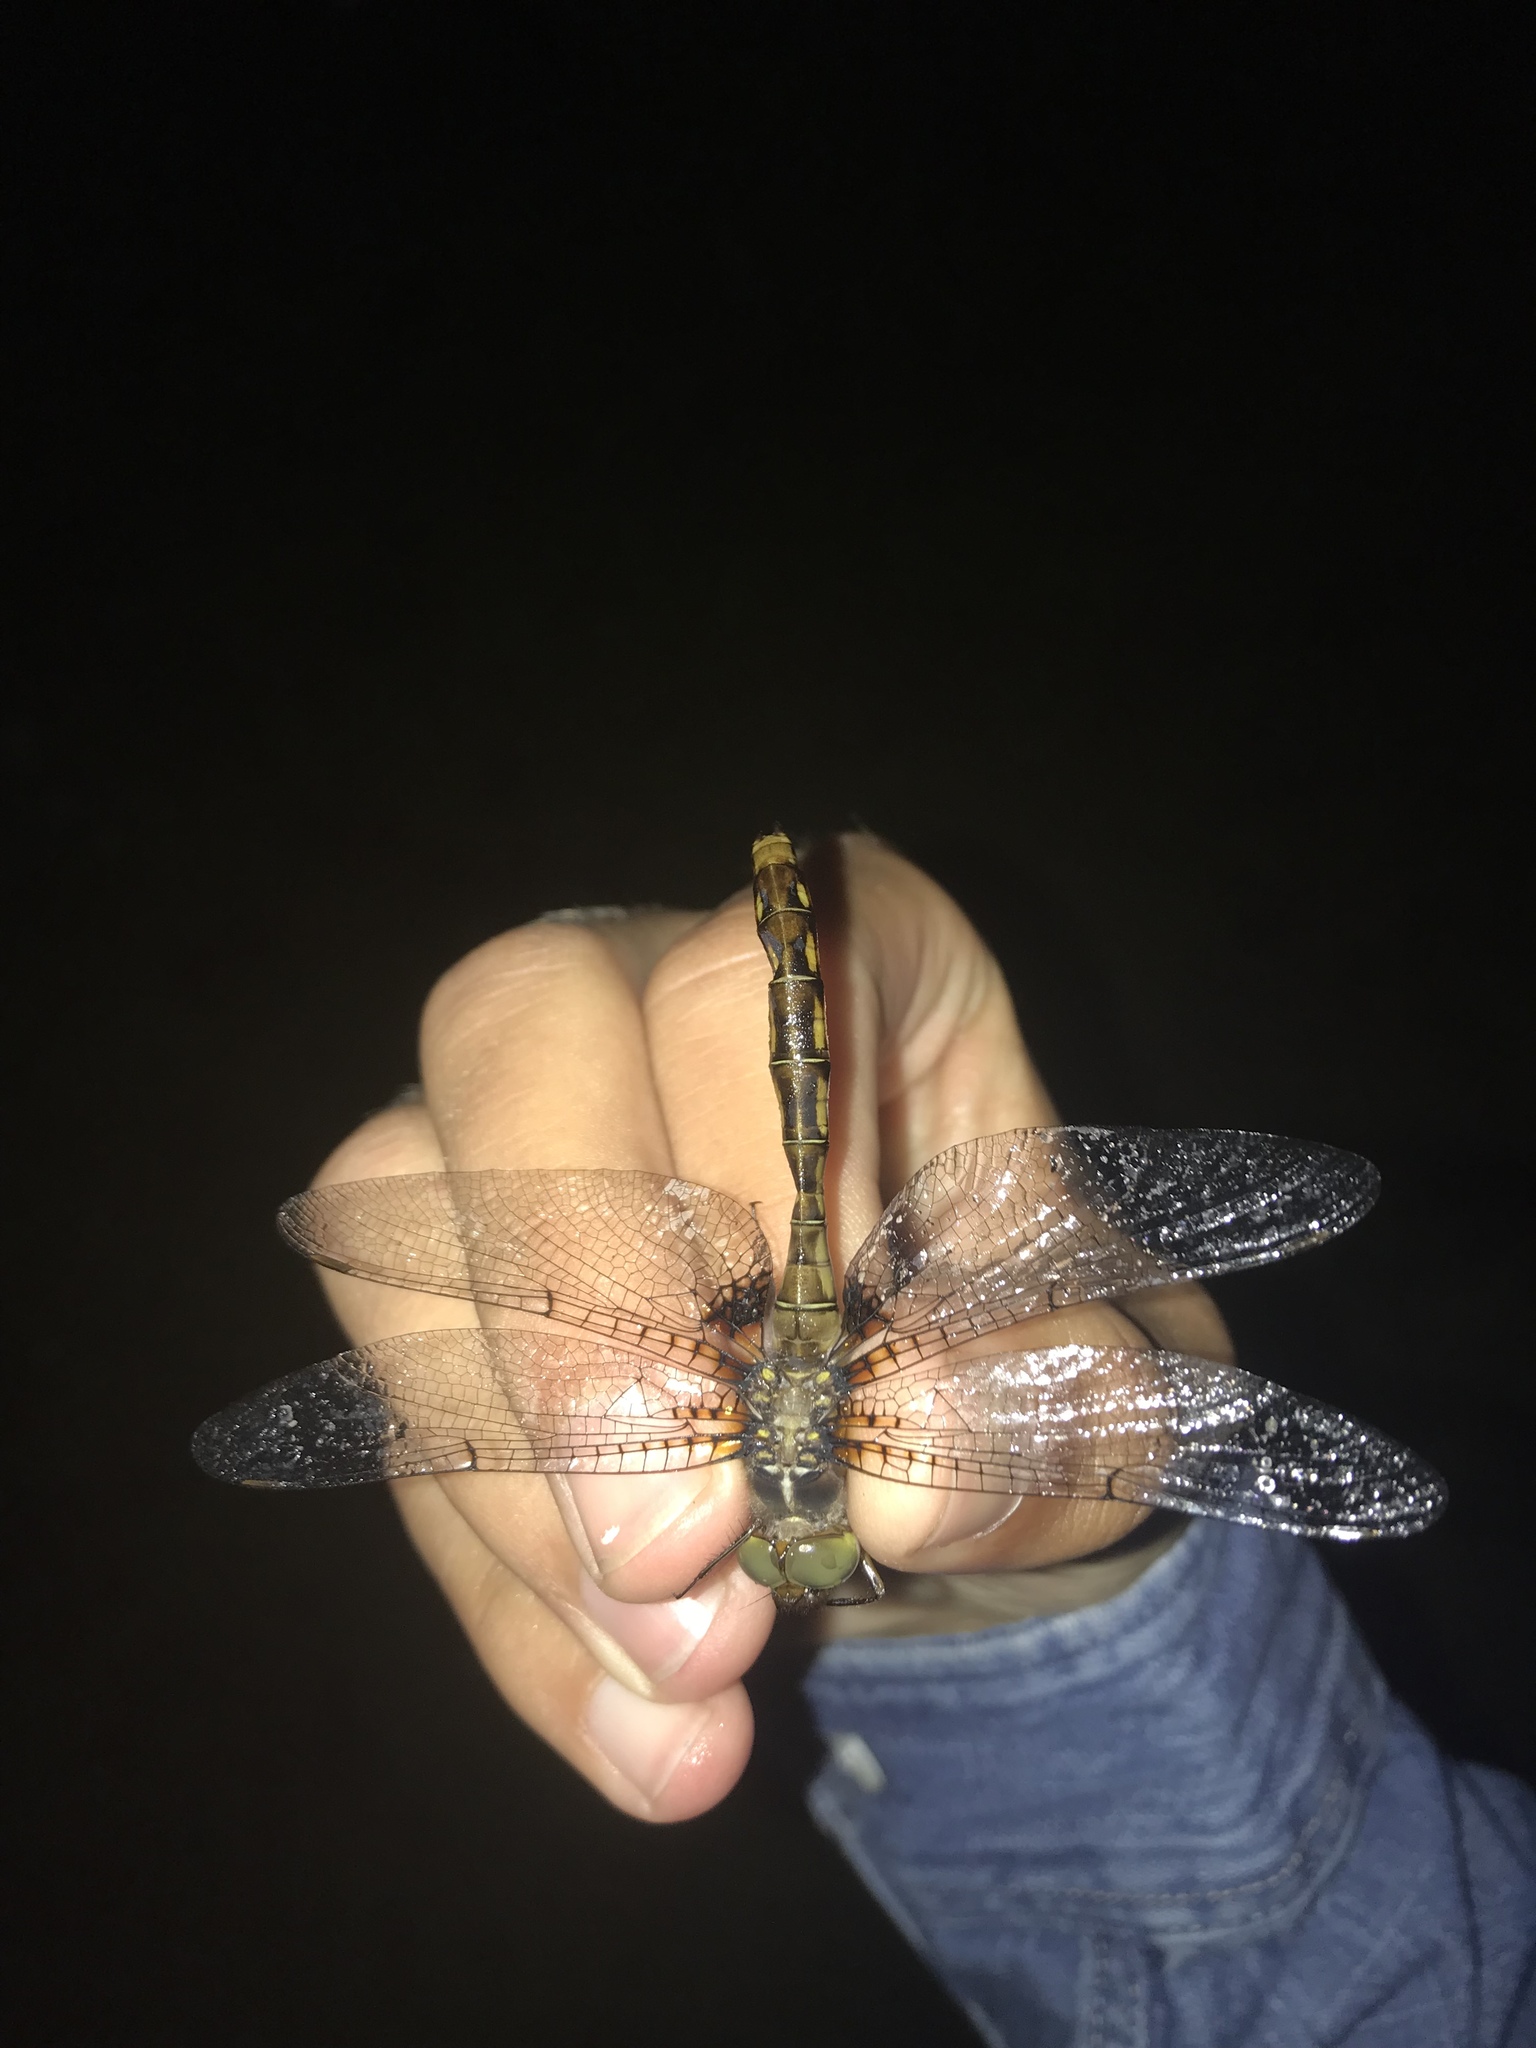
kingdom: Animalia
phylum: Arthropoda
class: Insecta
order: Odonata
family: Corduliidae
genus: Neurocordulia
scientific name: Neurocordulia yamaskanensis
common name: Stygian shadowdragon
